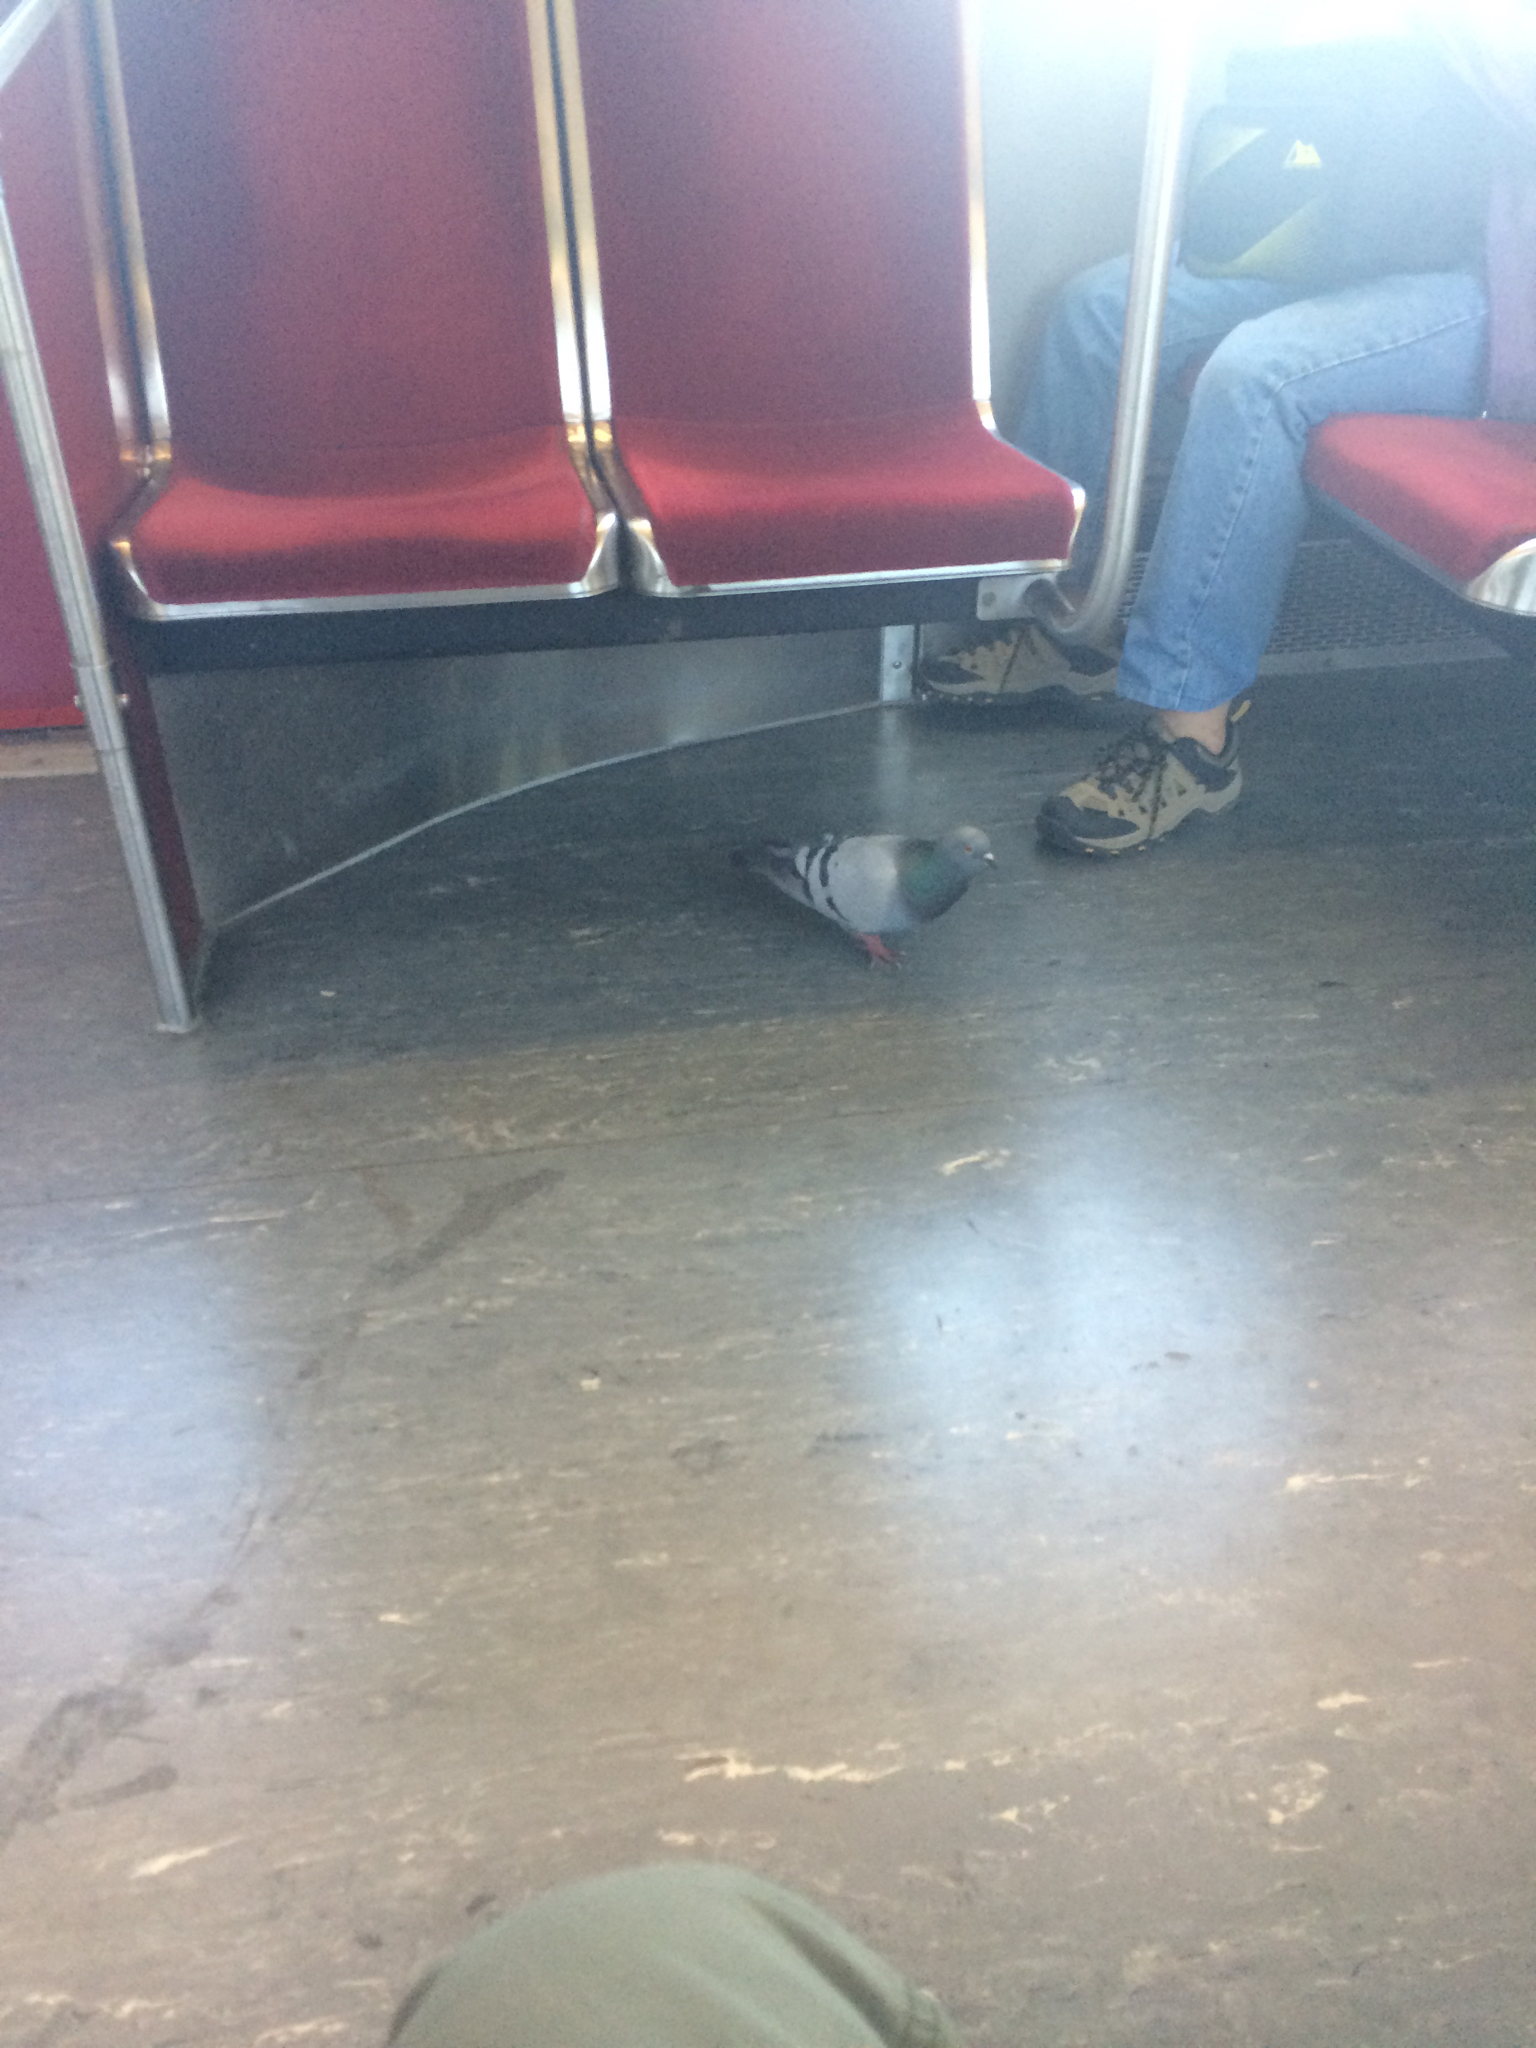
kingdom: Animalia
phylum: Chordata
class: Aves
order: Columbiformes
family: Columbidae
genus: Columba
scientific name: Columba livia
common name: Rock pigeon
